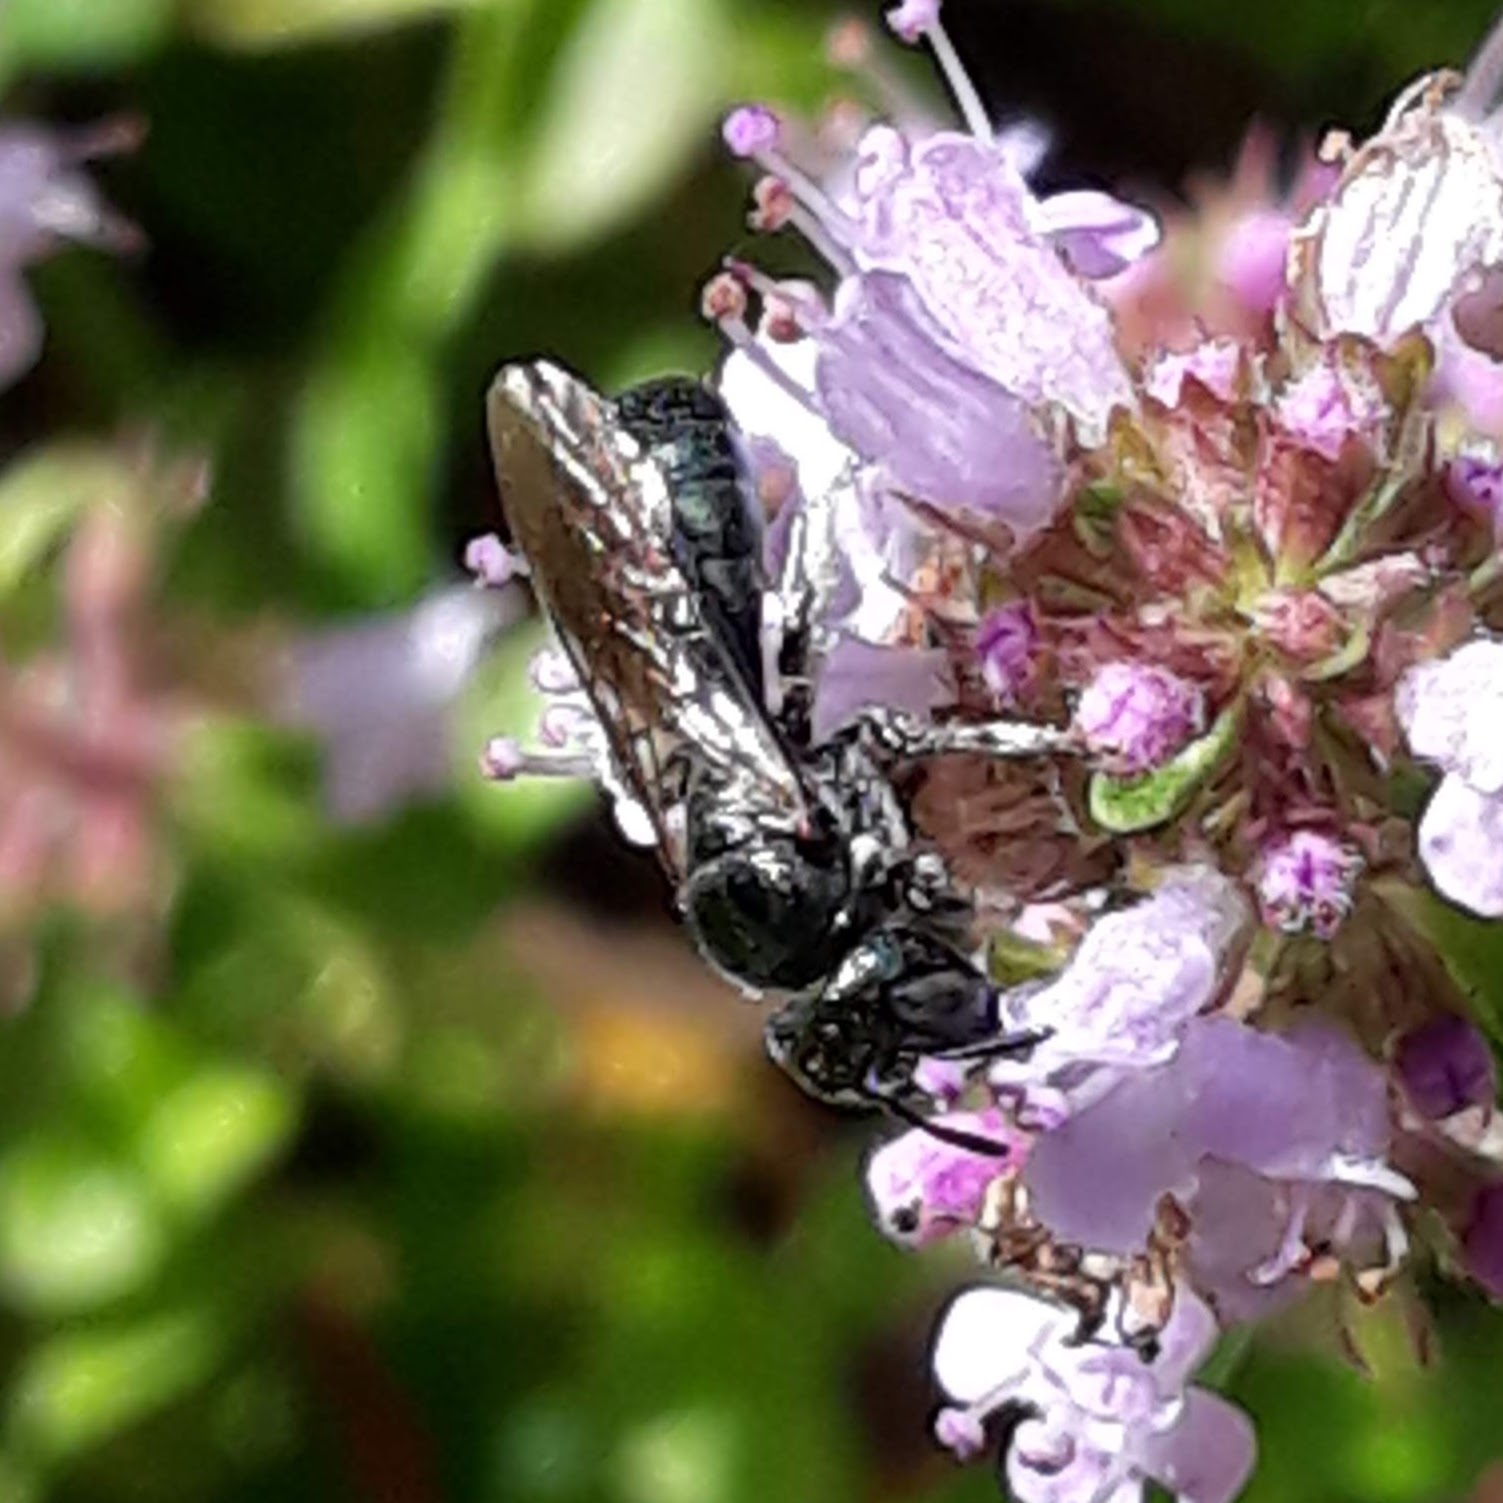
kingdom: Animalia
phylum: Arthropoda
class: Insecta
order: Hymenoptera
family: Apidae
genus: Zadontomerus
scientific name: Zadontomerus
